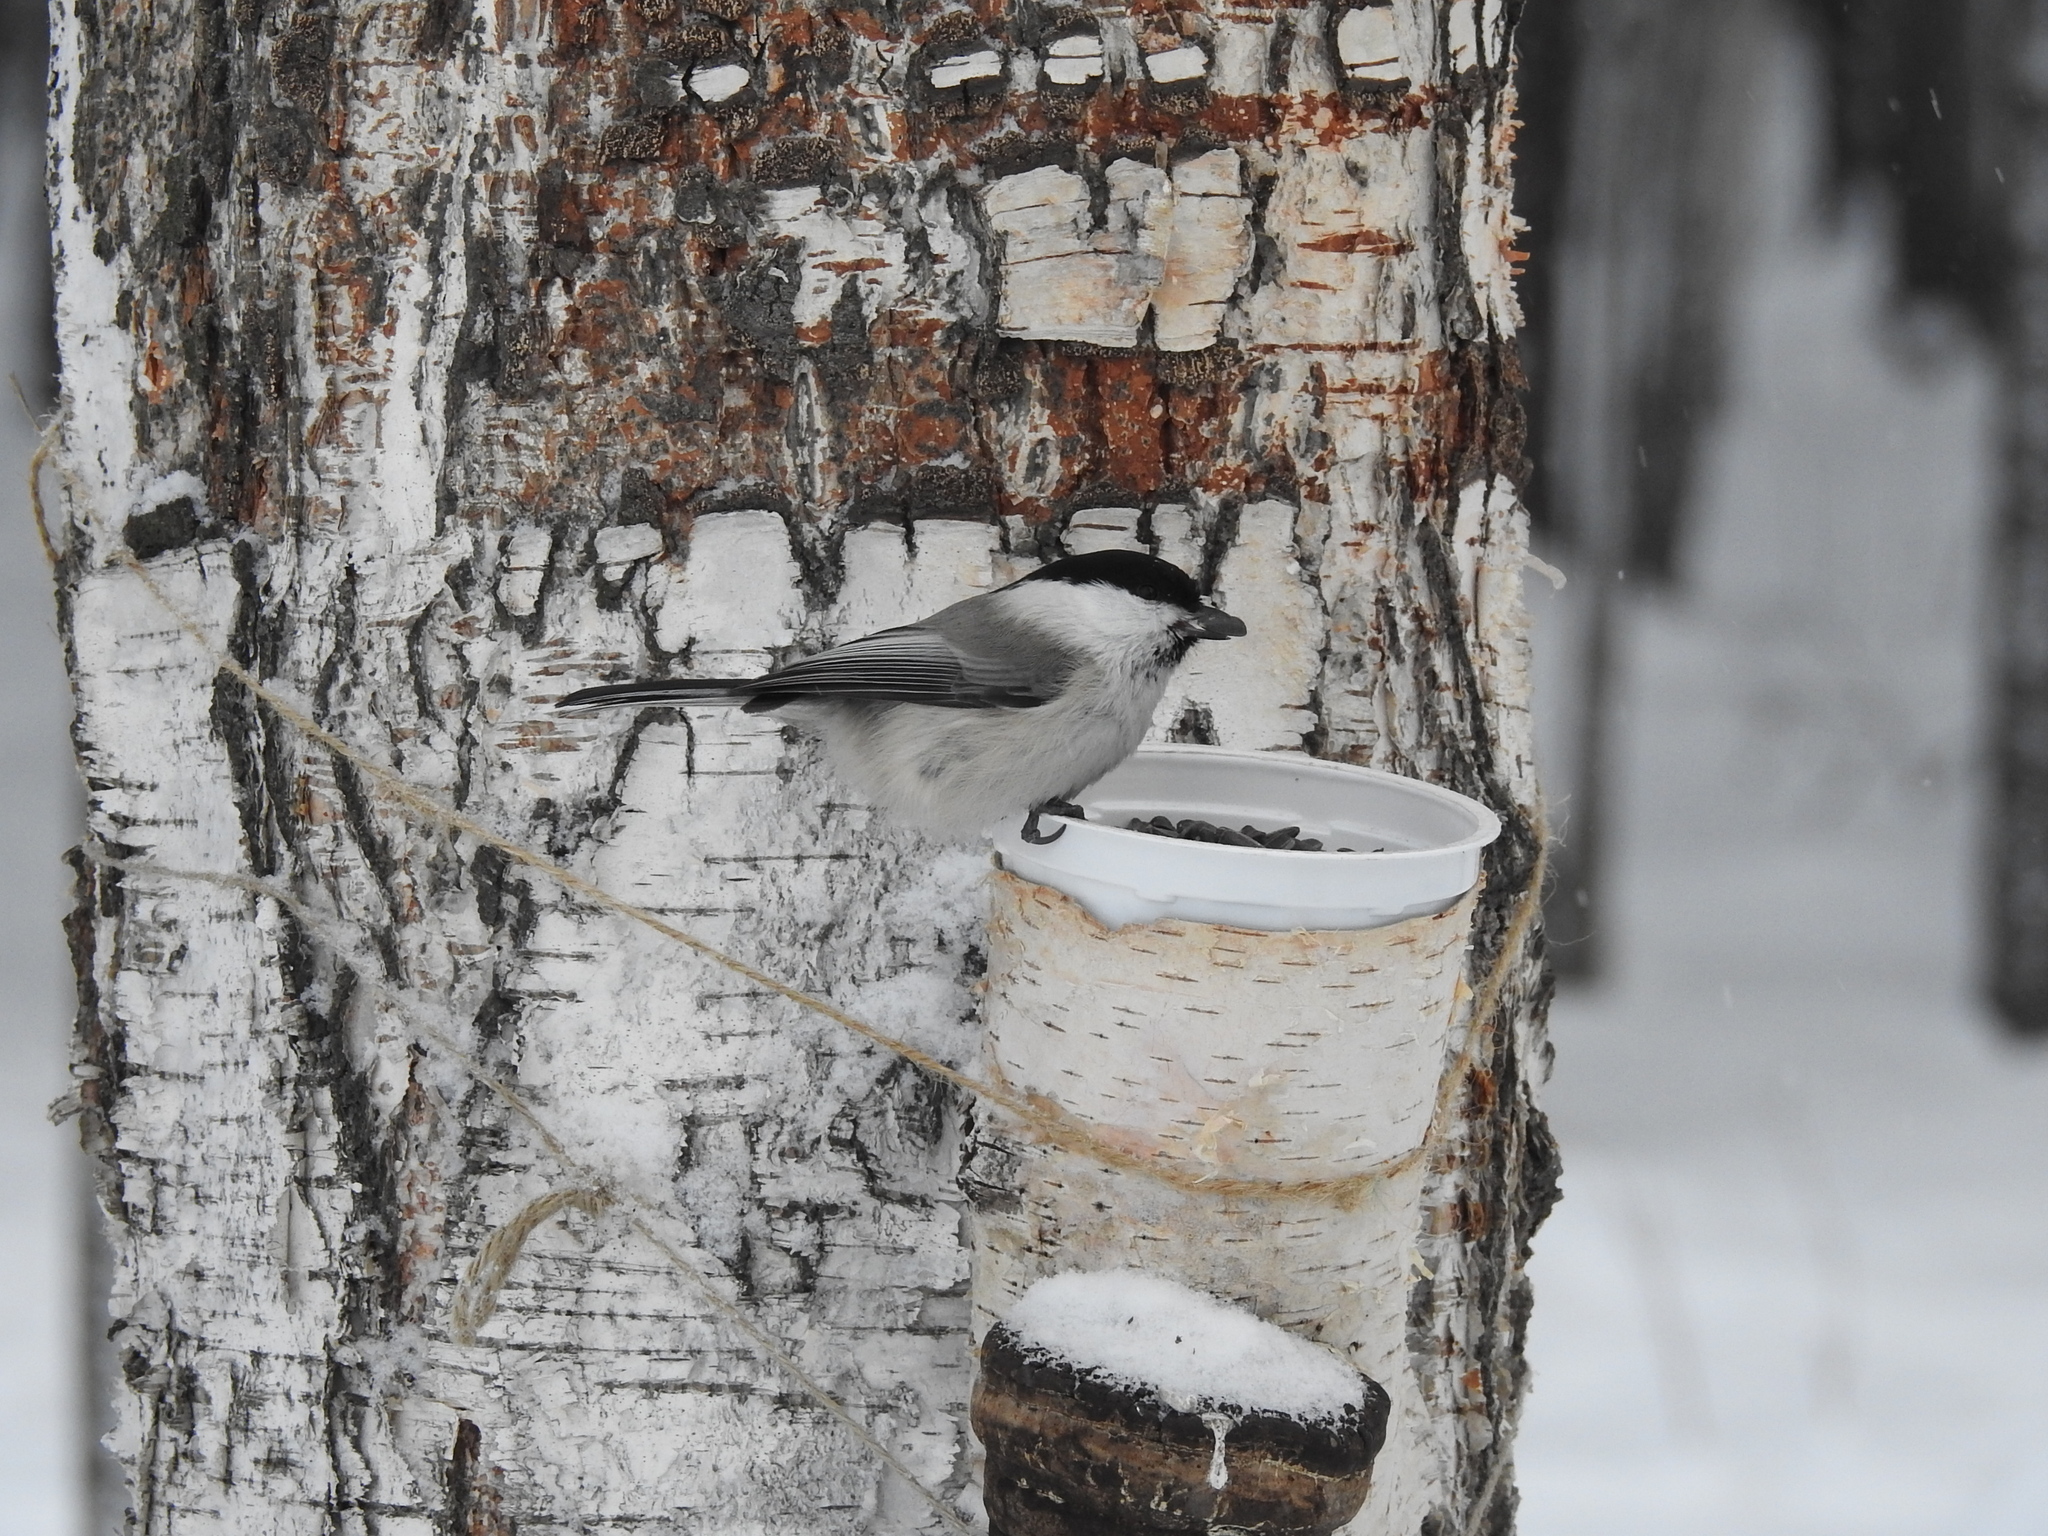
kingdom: Animalia
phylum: Chordata
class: Aves
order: Passeriformes
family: Paridae
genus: Poecile
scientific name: Poecile montanus
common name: Willow tit
